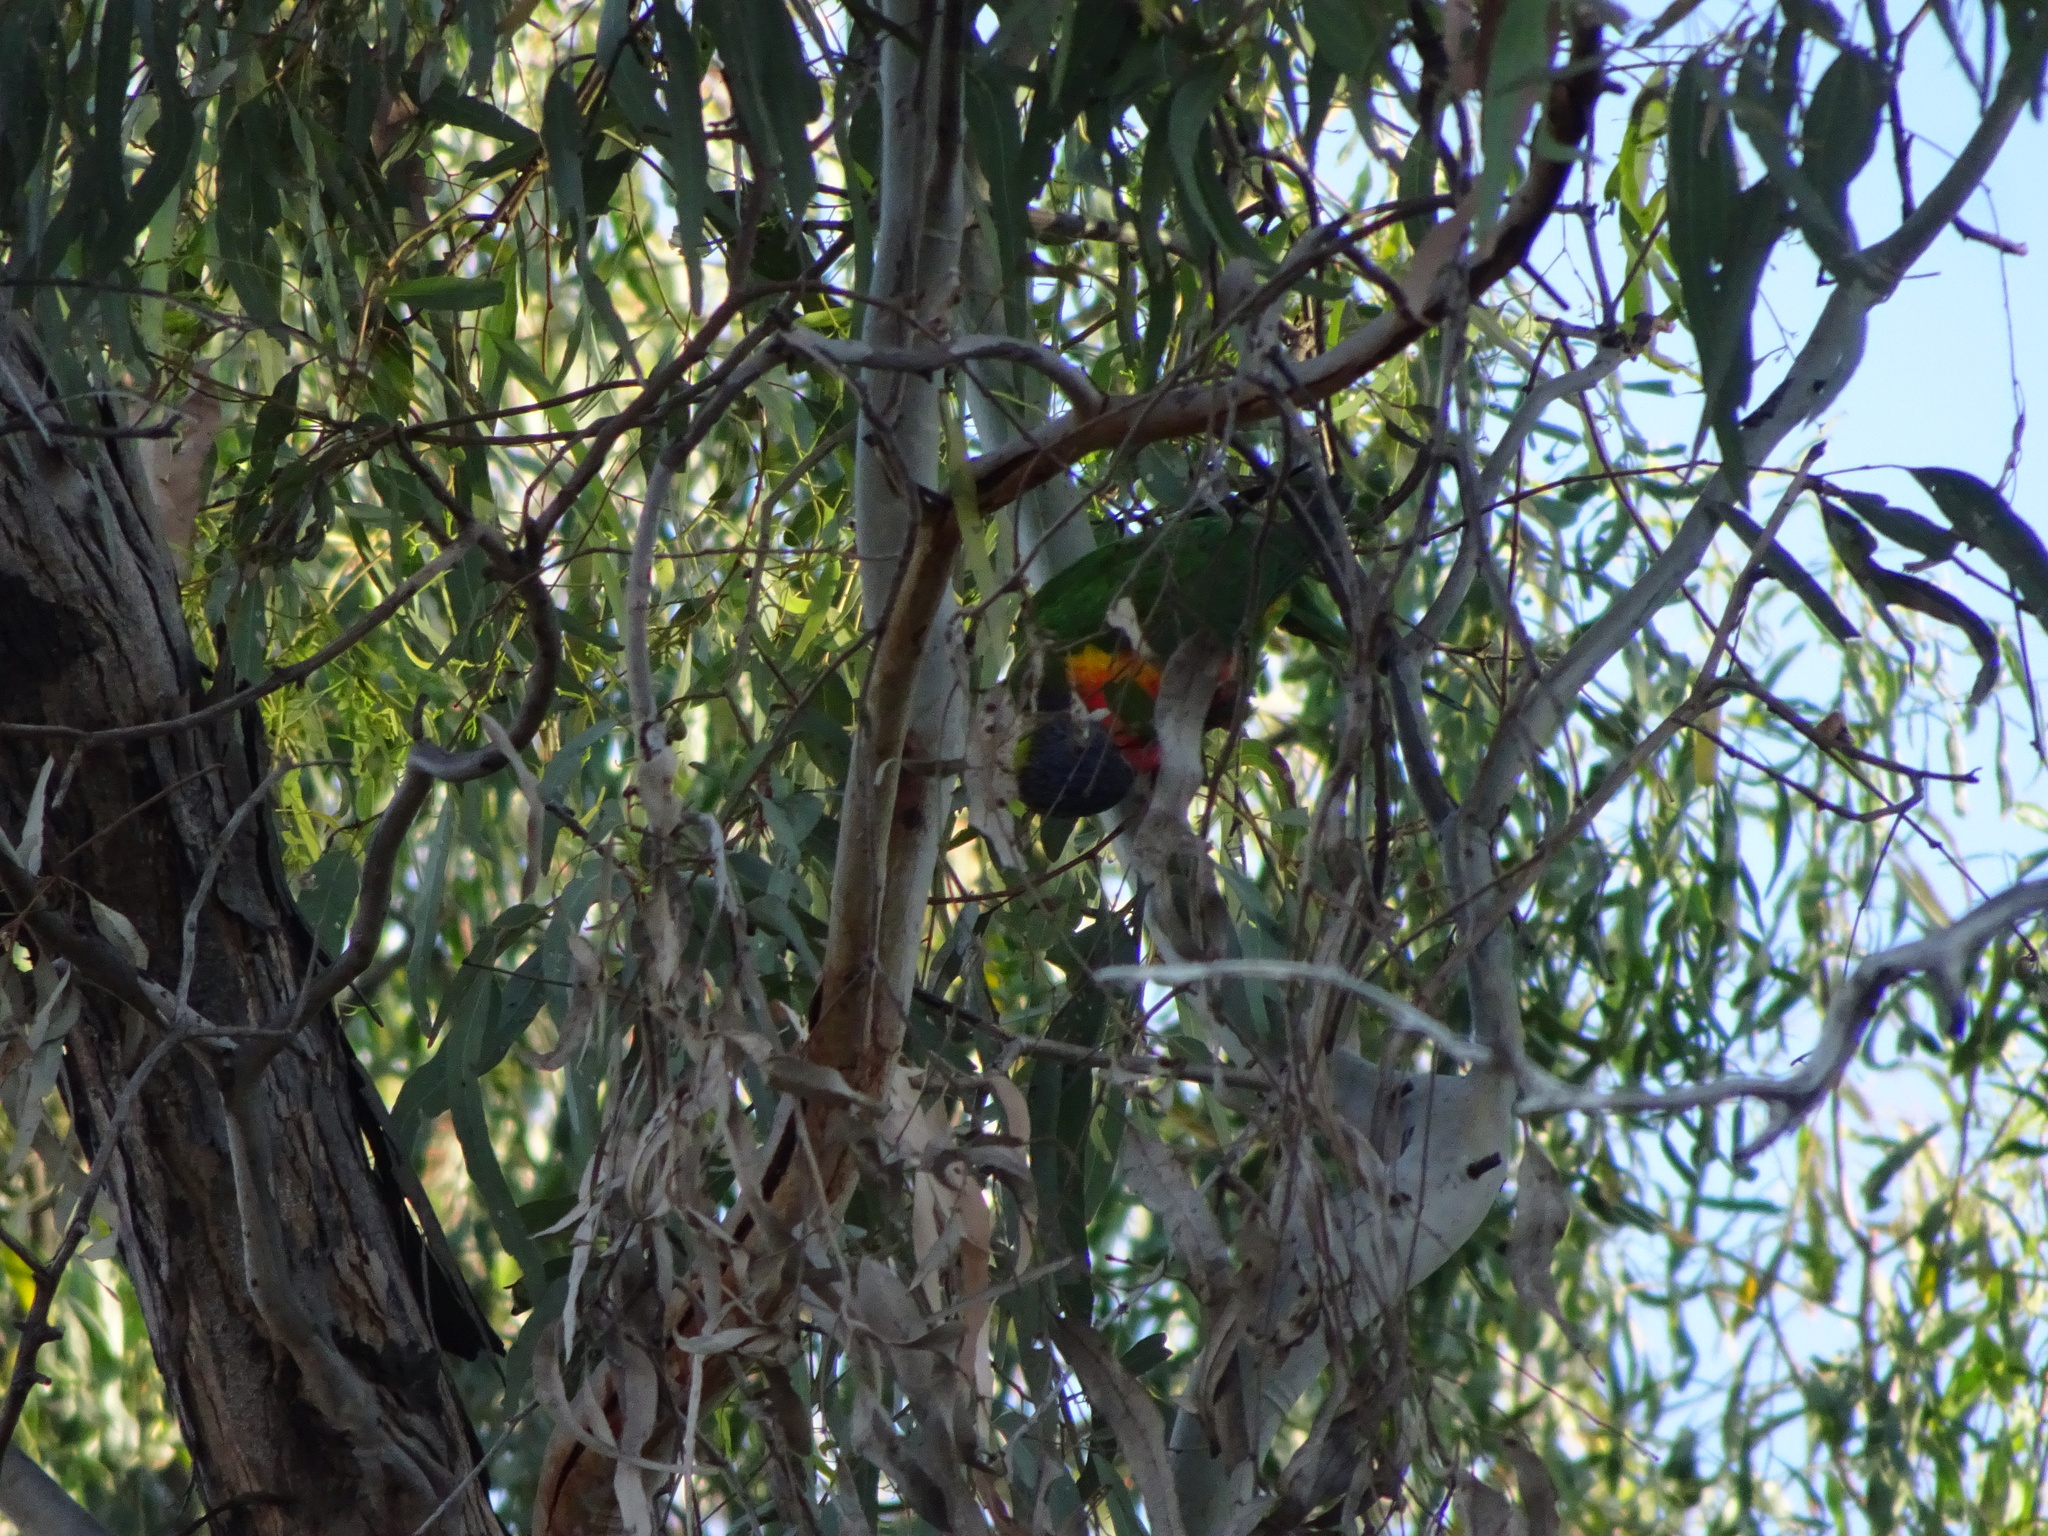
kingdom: Animalia
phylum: Chordata
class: Aves
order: Psittaciformes
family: Psittacidae
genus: Trichoglossus
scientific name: Trichoglossus haematodus
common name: Coconut lorikeet
